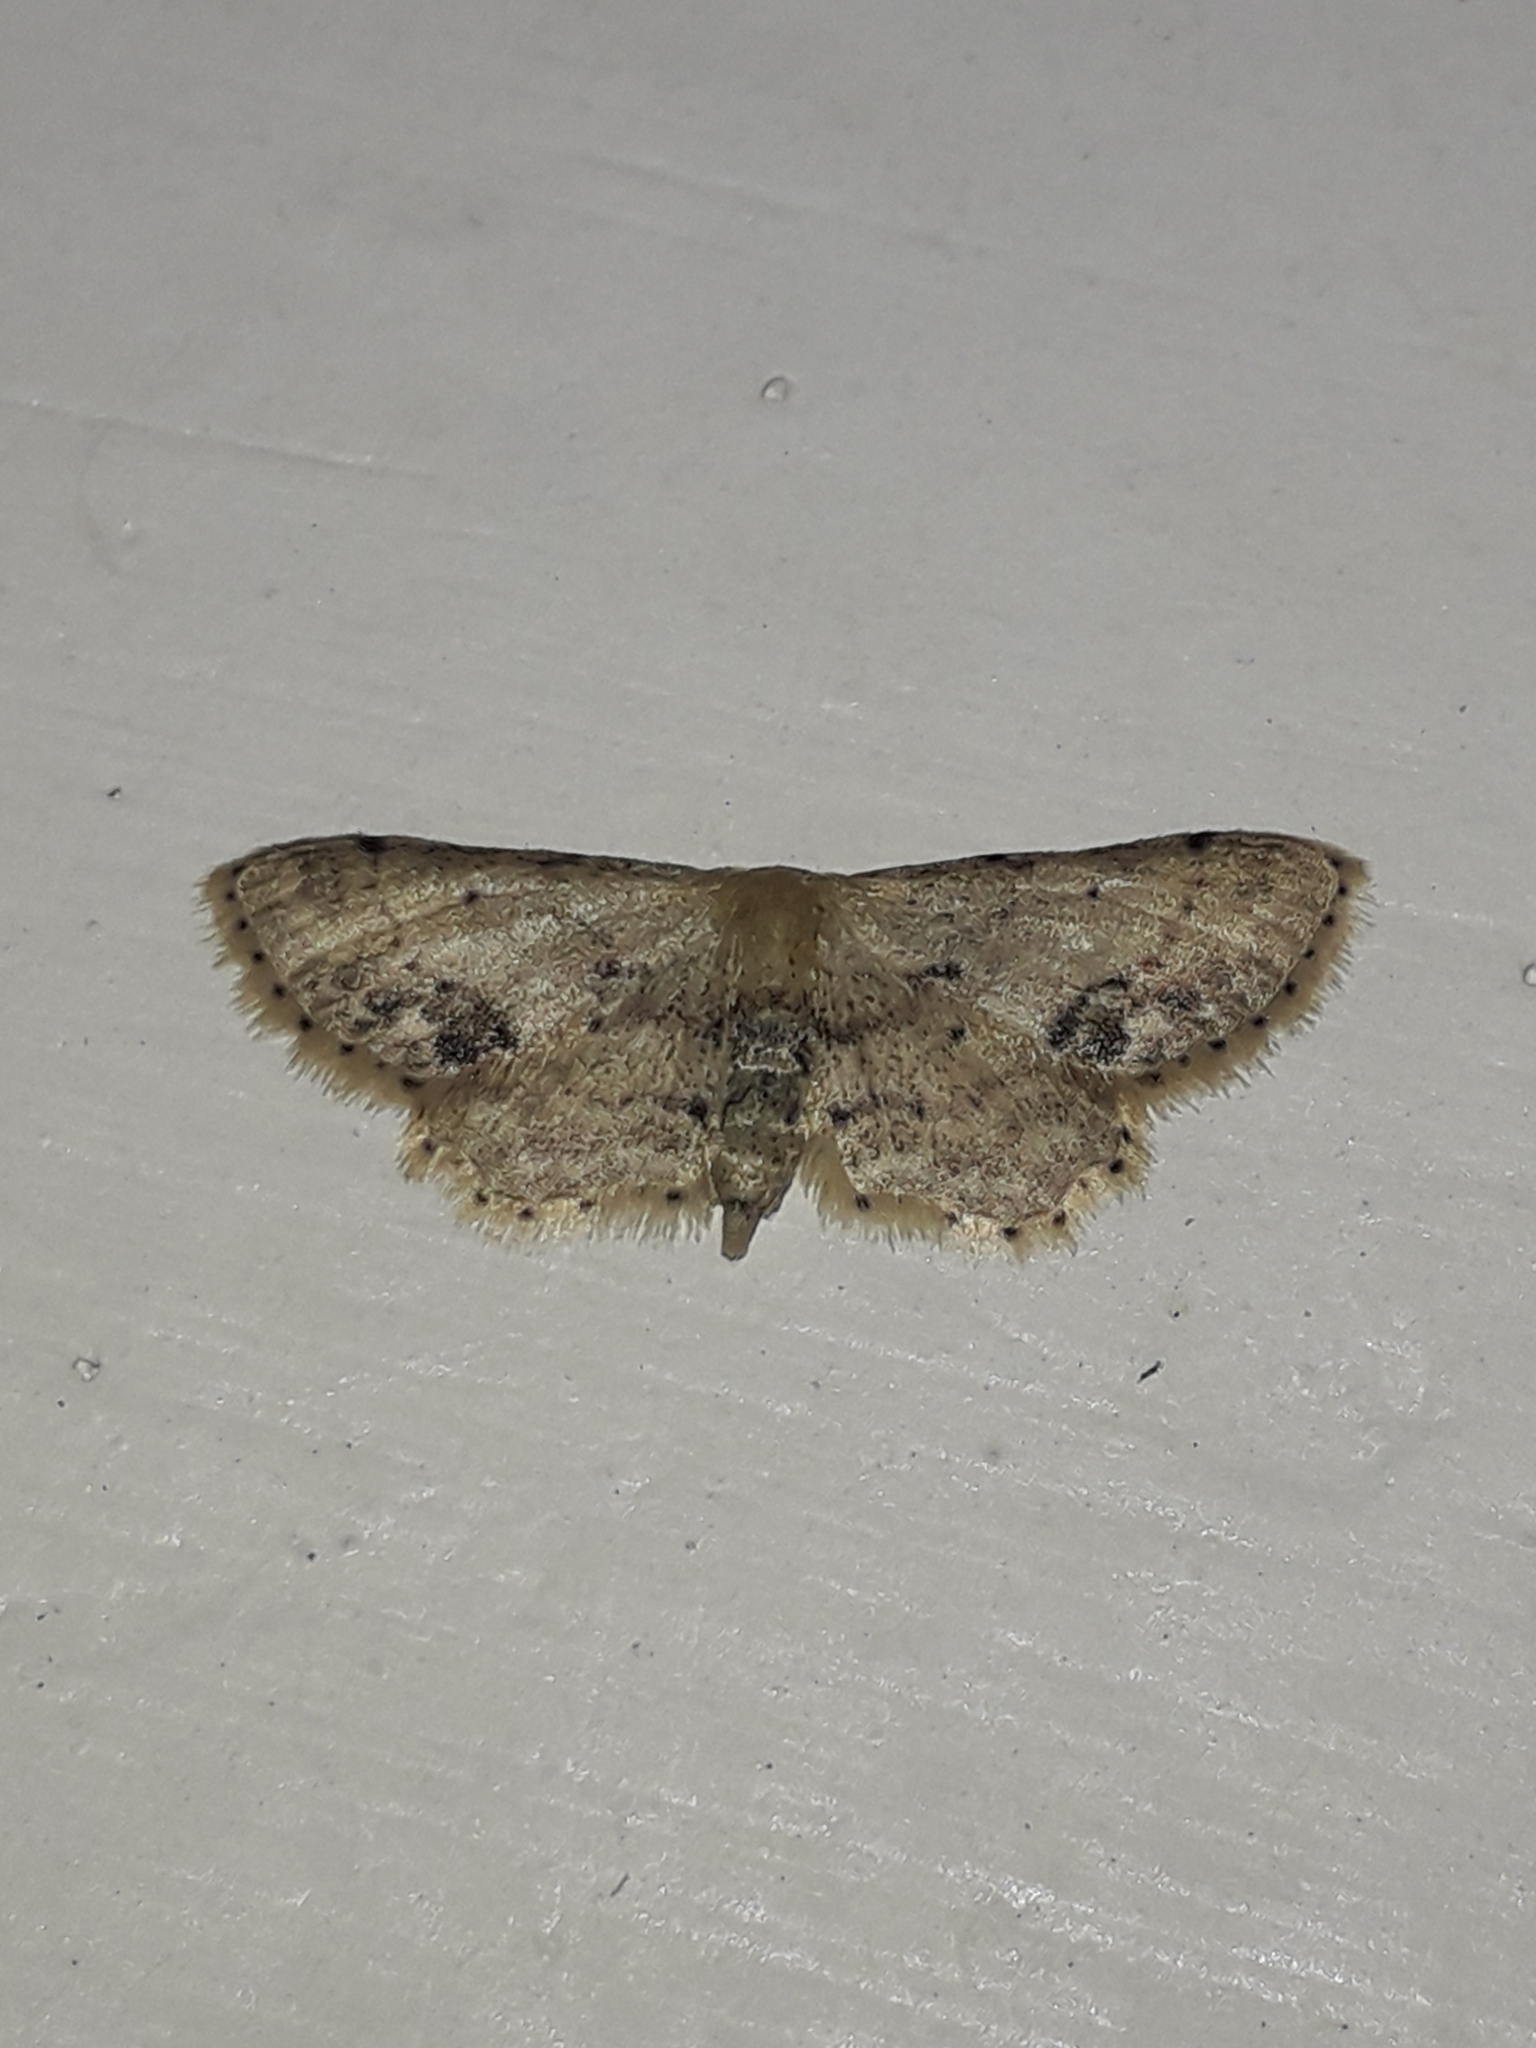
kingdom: Animalia
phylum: Arthropoda
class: Insecta
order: Lepidoptera
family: Geometridae
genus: Idaea
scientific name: Idaea dimidiata
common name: Single-dotted wave
